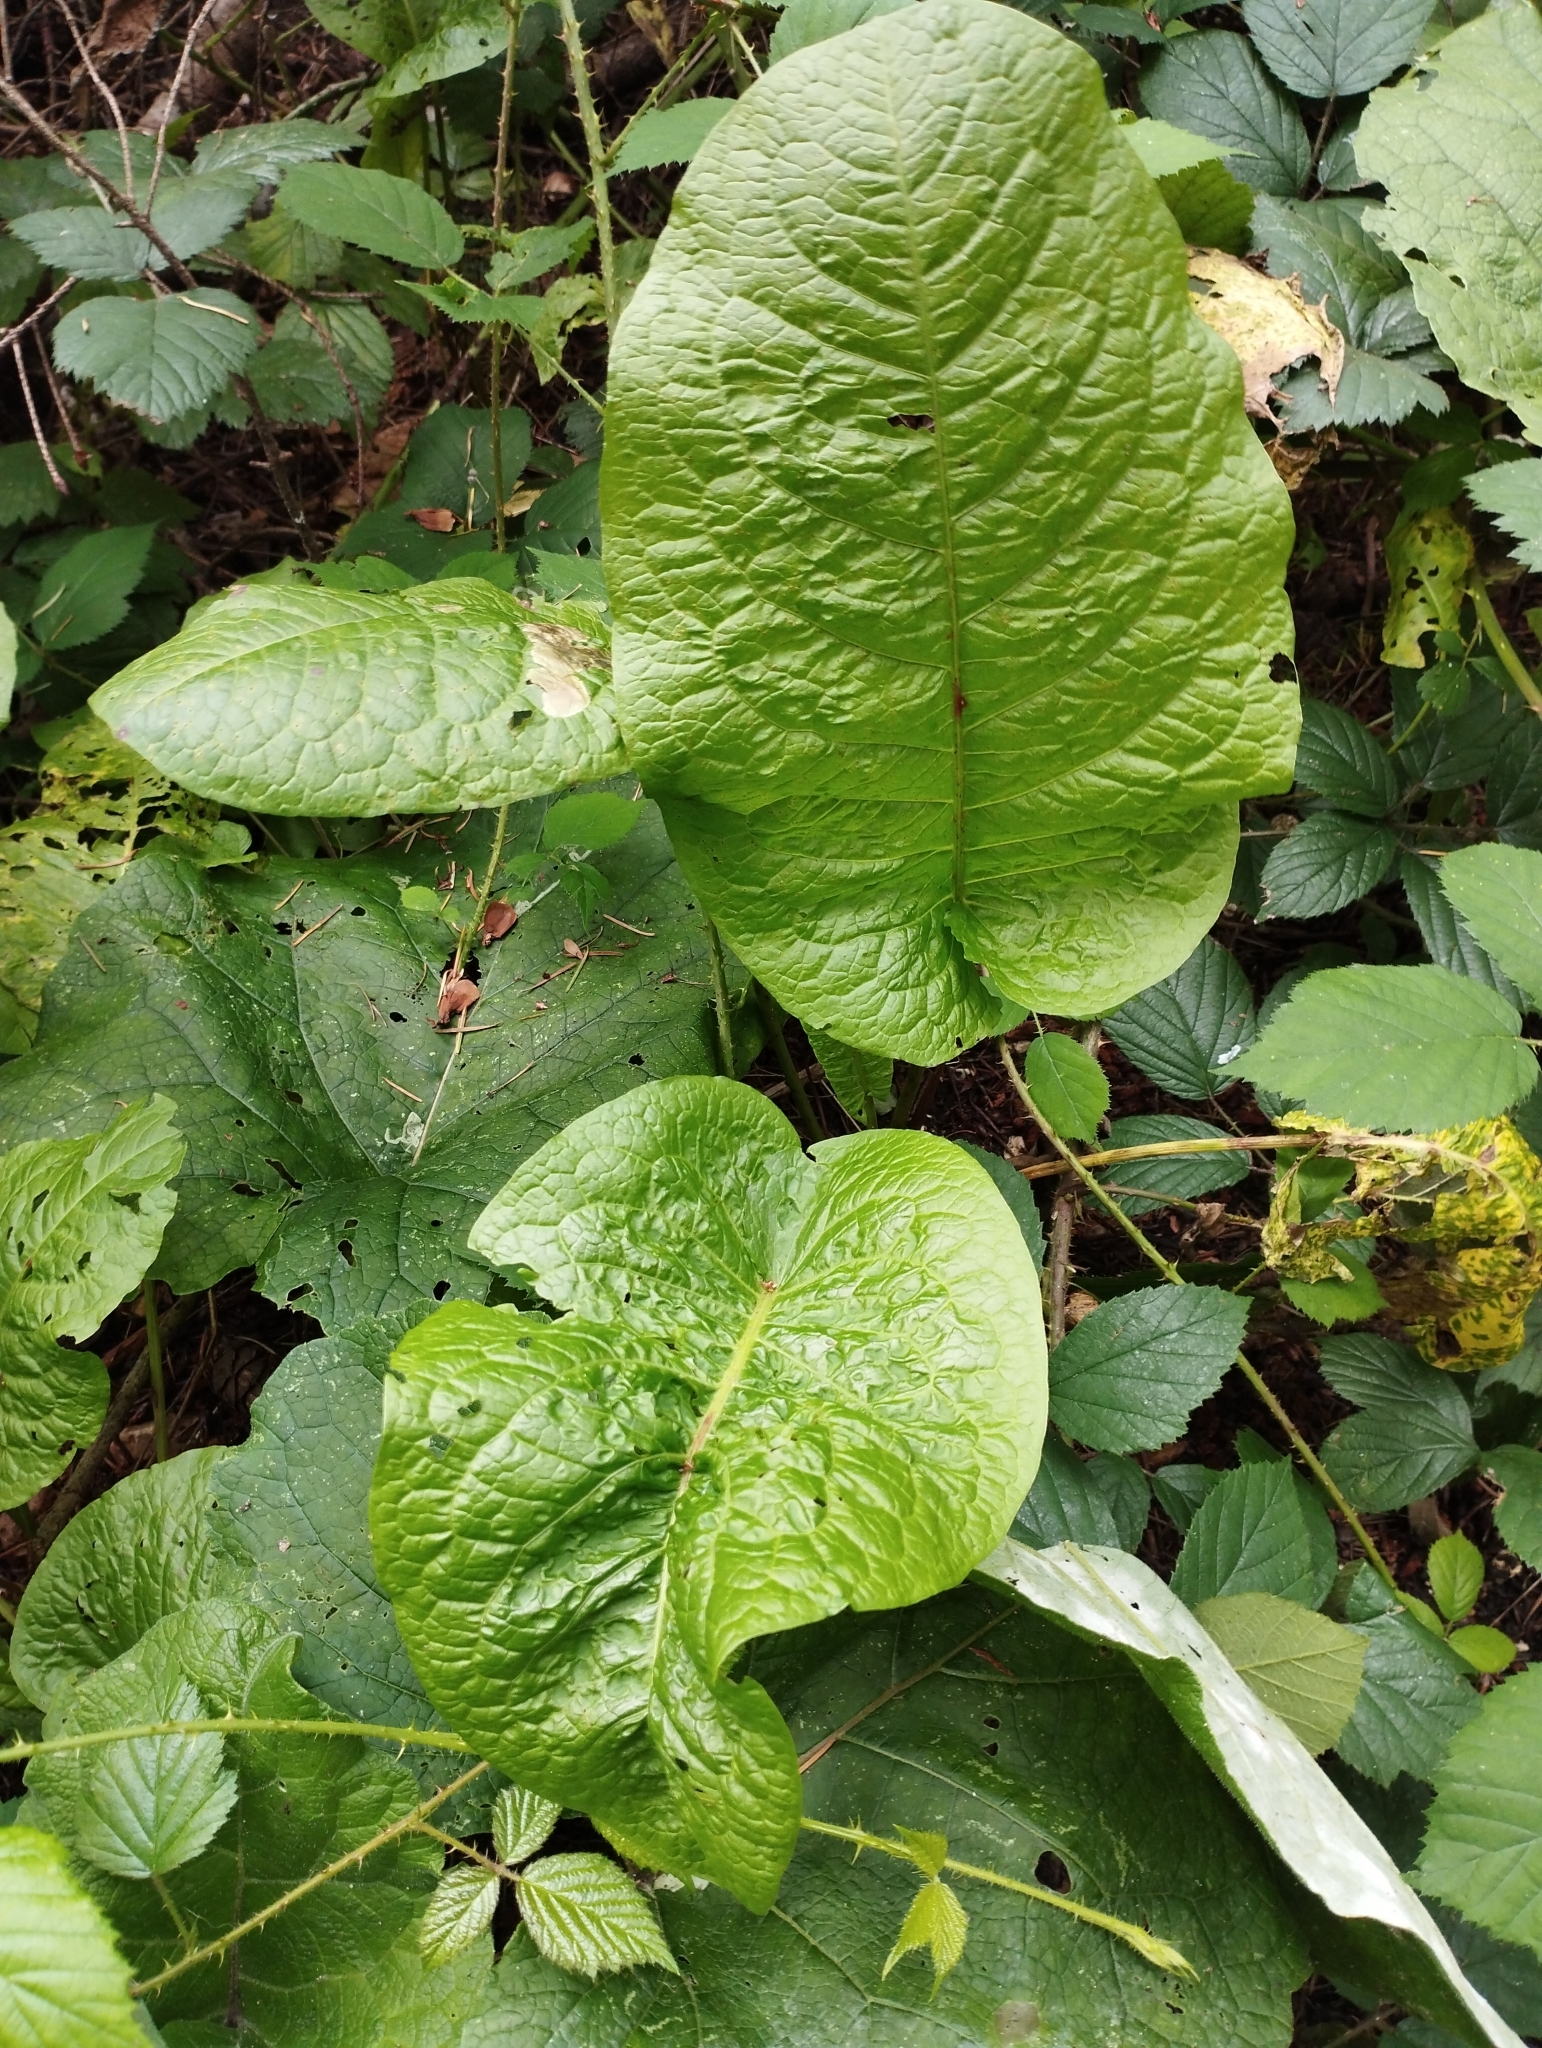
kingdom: Plantae
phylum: Tracheophyta
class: Magnoliopsida
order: Caryophyllales
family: Polygonaceae
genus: Rumex
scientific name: Rumex obtusifolius
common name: Bitter dock
